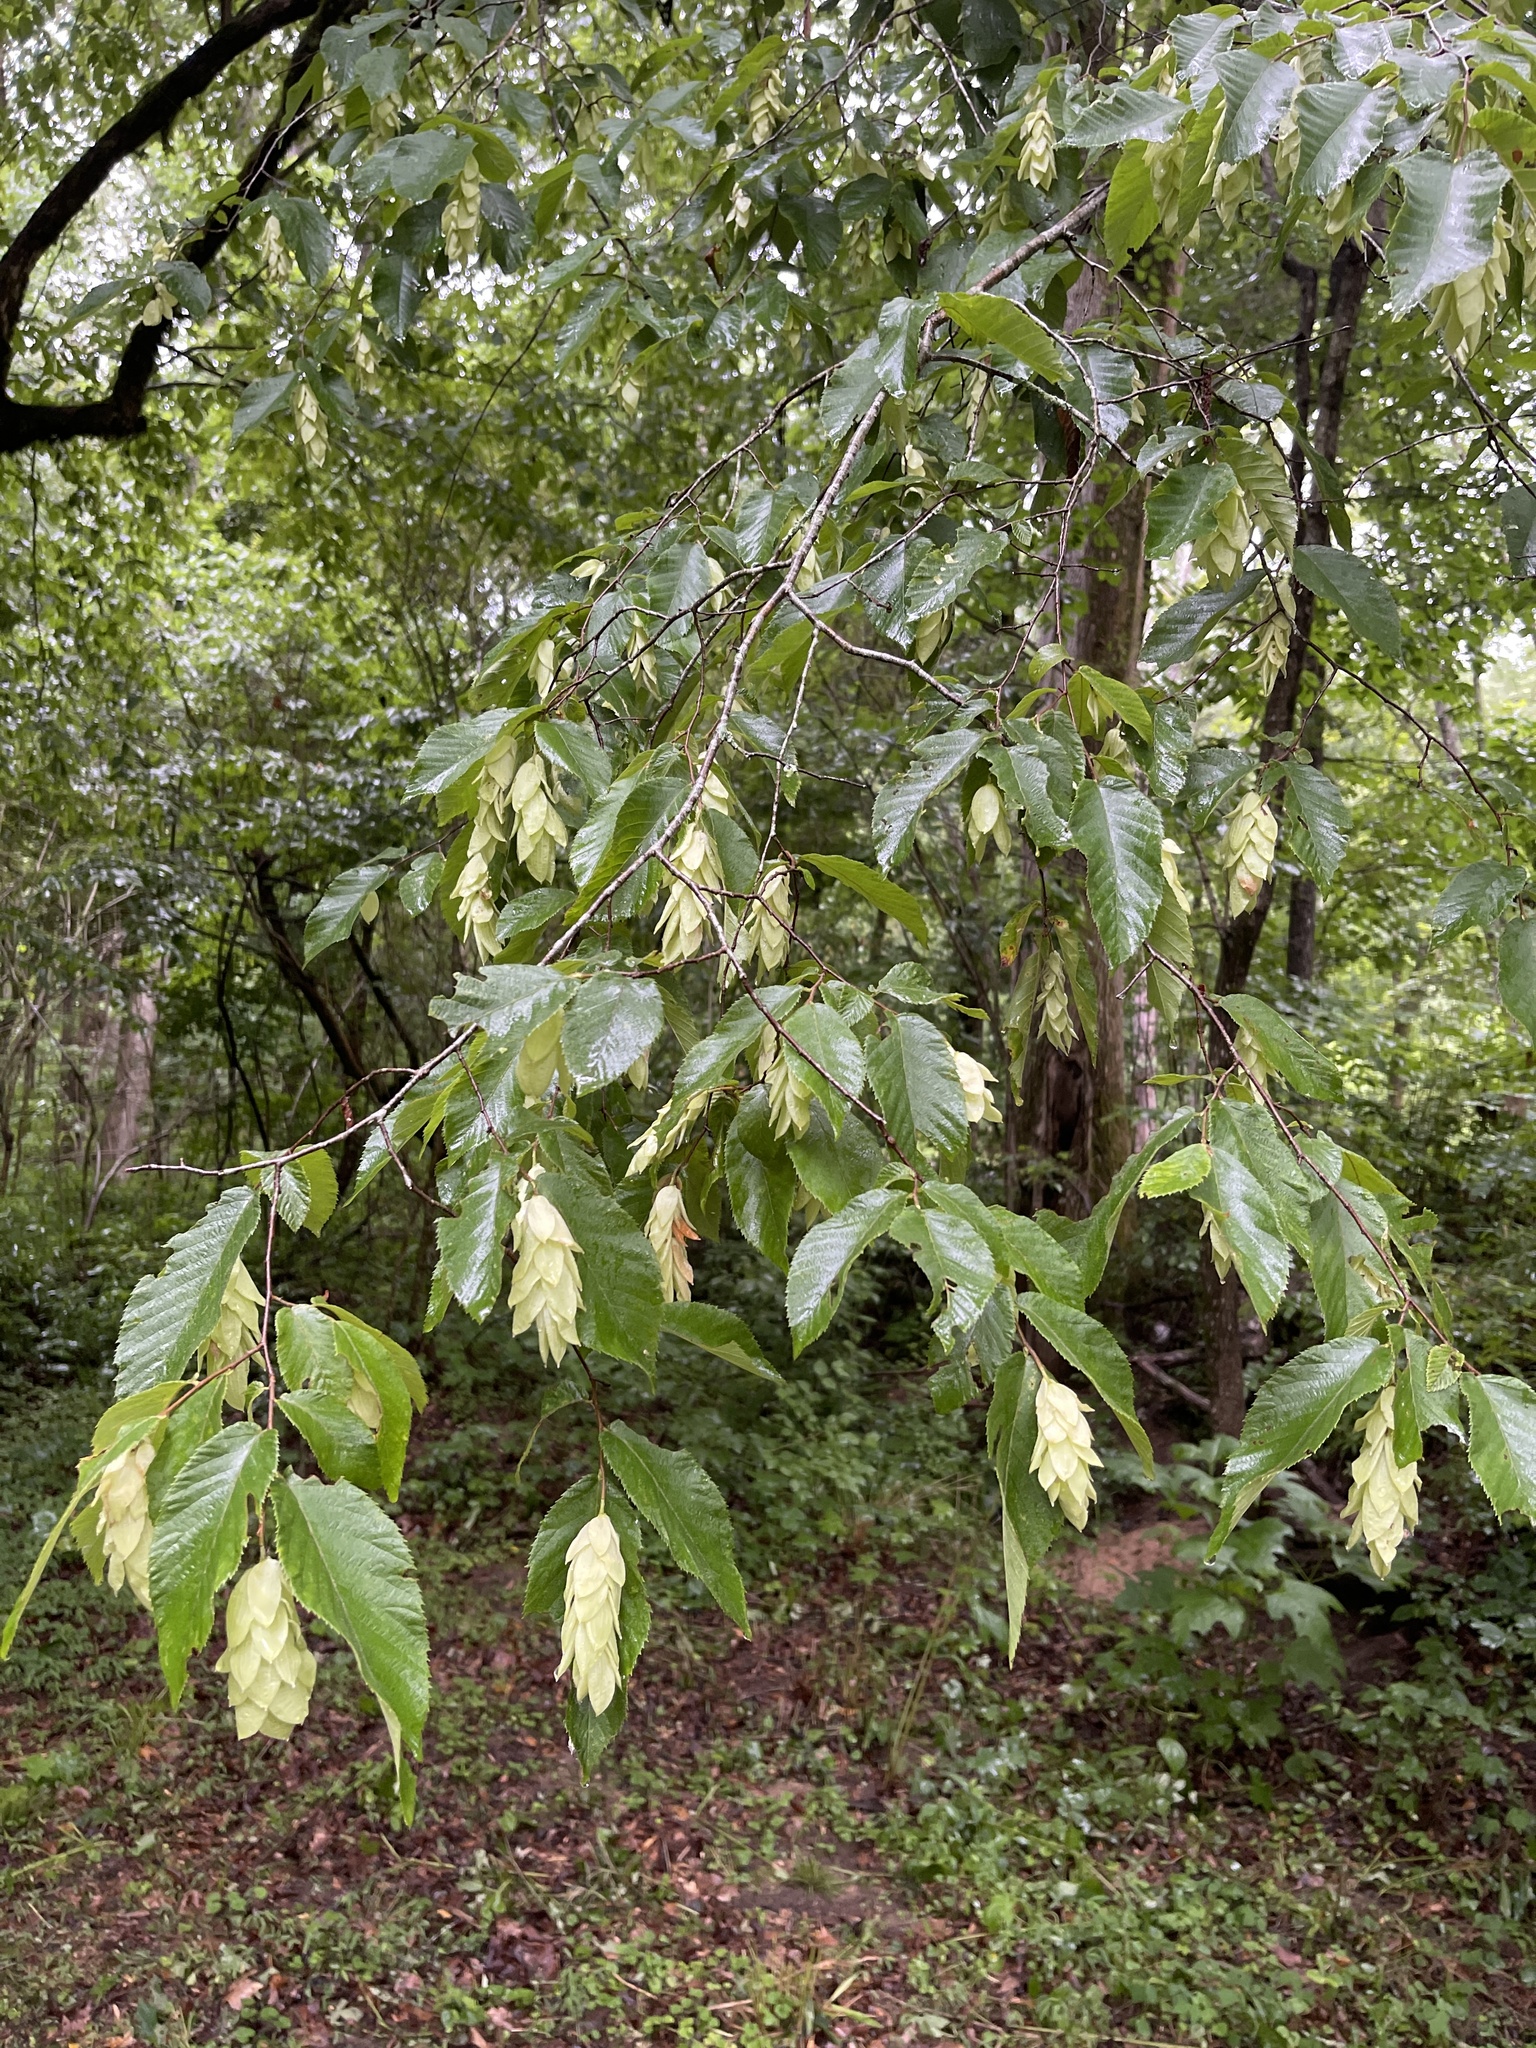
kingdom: Plantae
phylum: Tracheophyta
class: Magnoliopsida
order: Fagales
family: Betulaceae
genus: Ostrya
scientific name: Ostrya virginiana
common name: Ironwood
